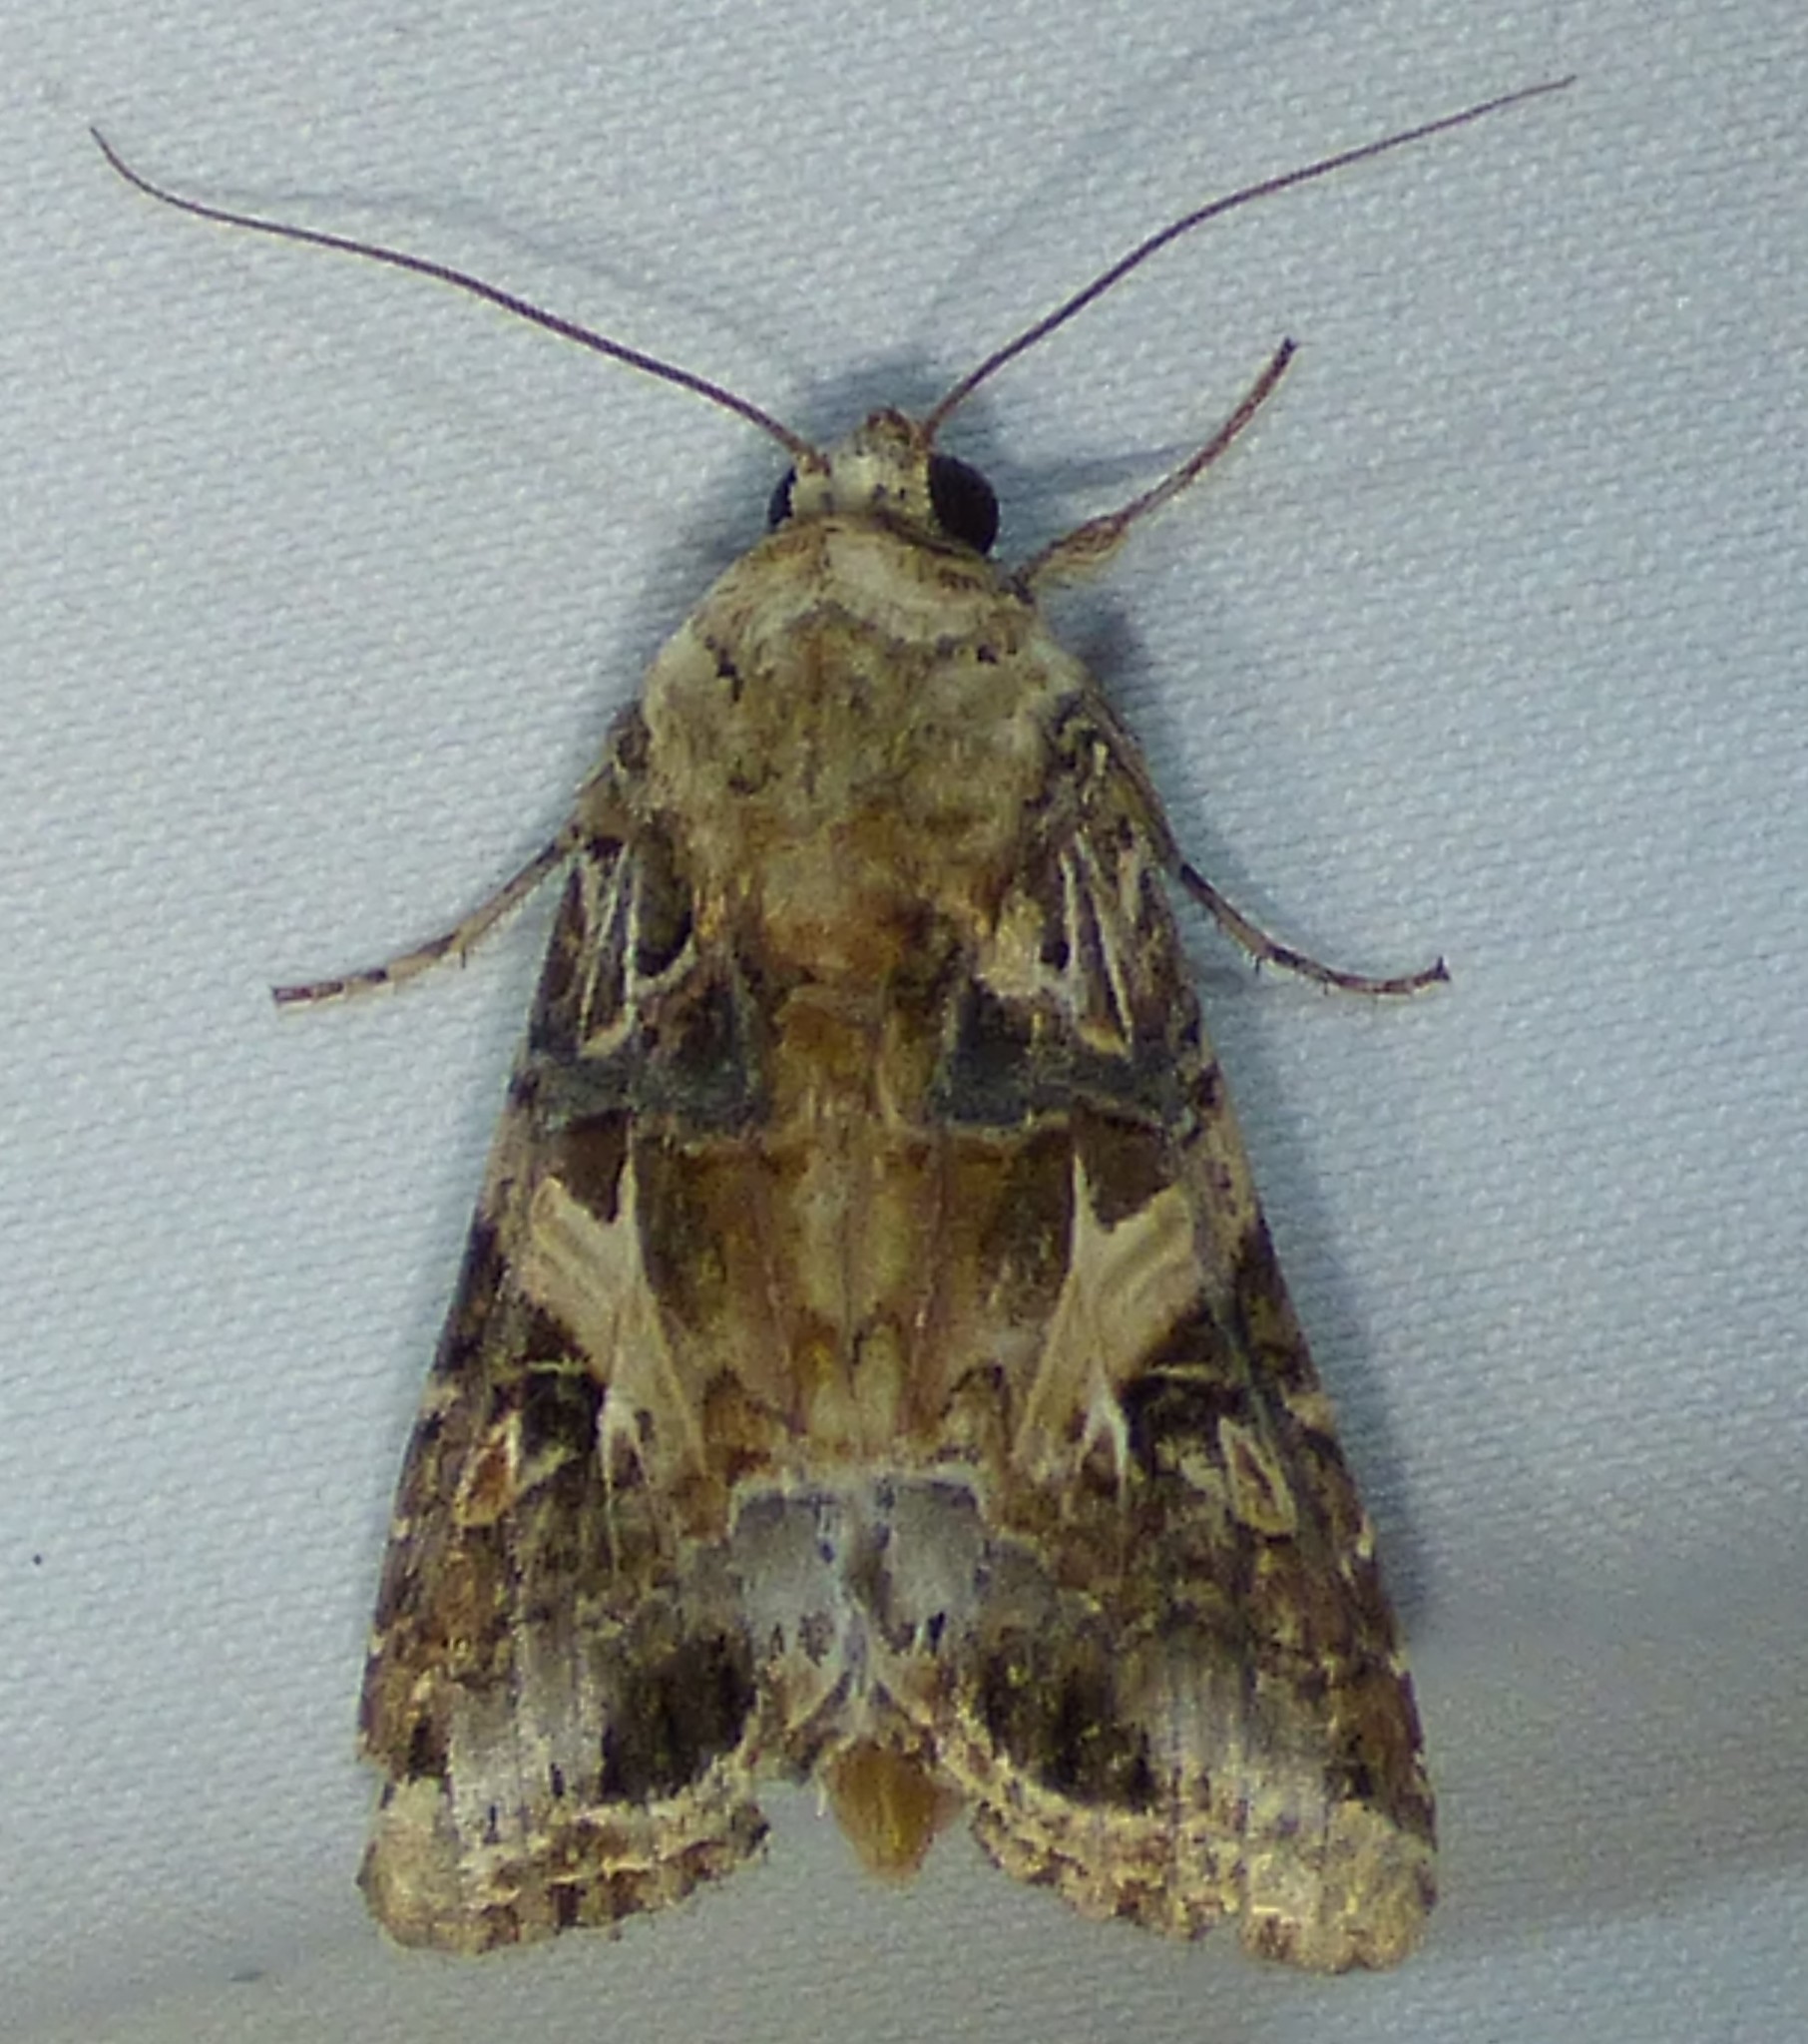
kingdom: Animalia
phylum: Arthropoda
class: Insecta
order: Lepidoptera
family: Noctuidae
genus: Spodoptera
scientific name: Spodoptera ornithogalli
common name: Yellow-striped armyworm
